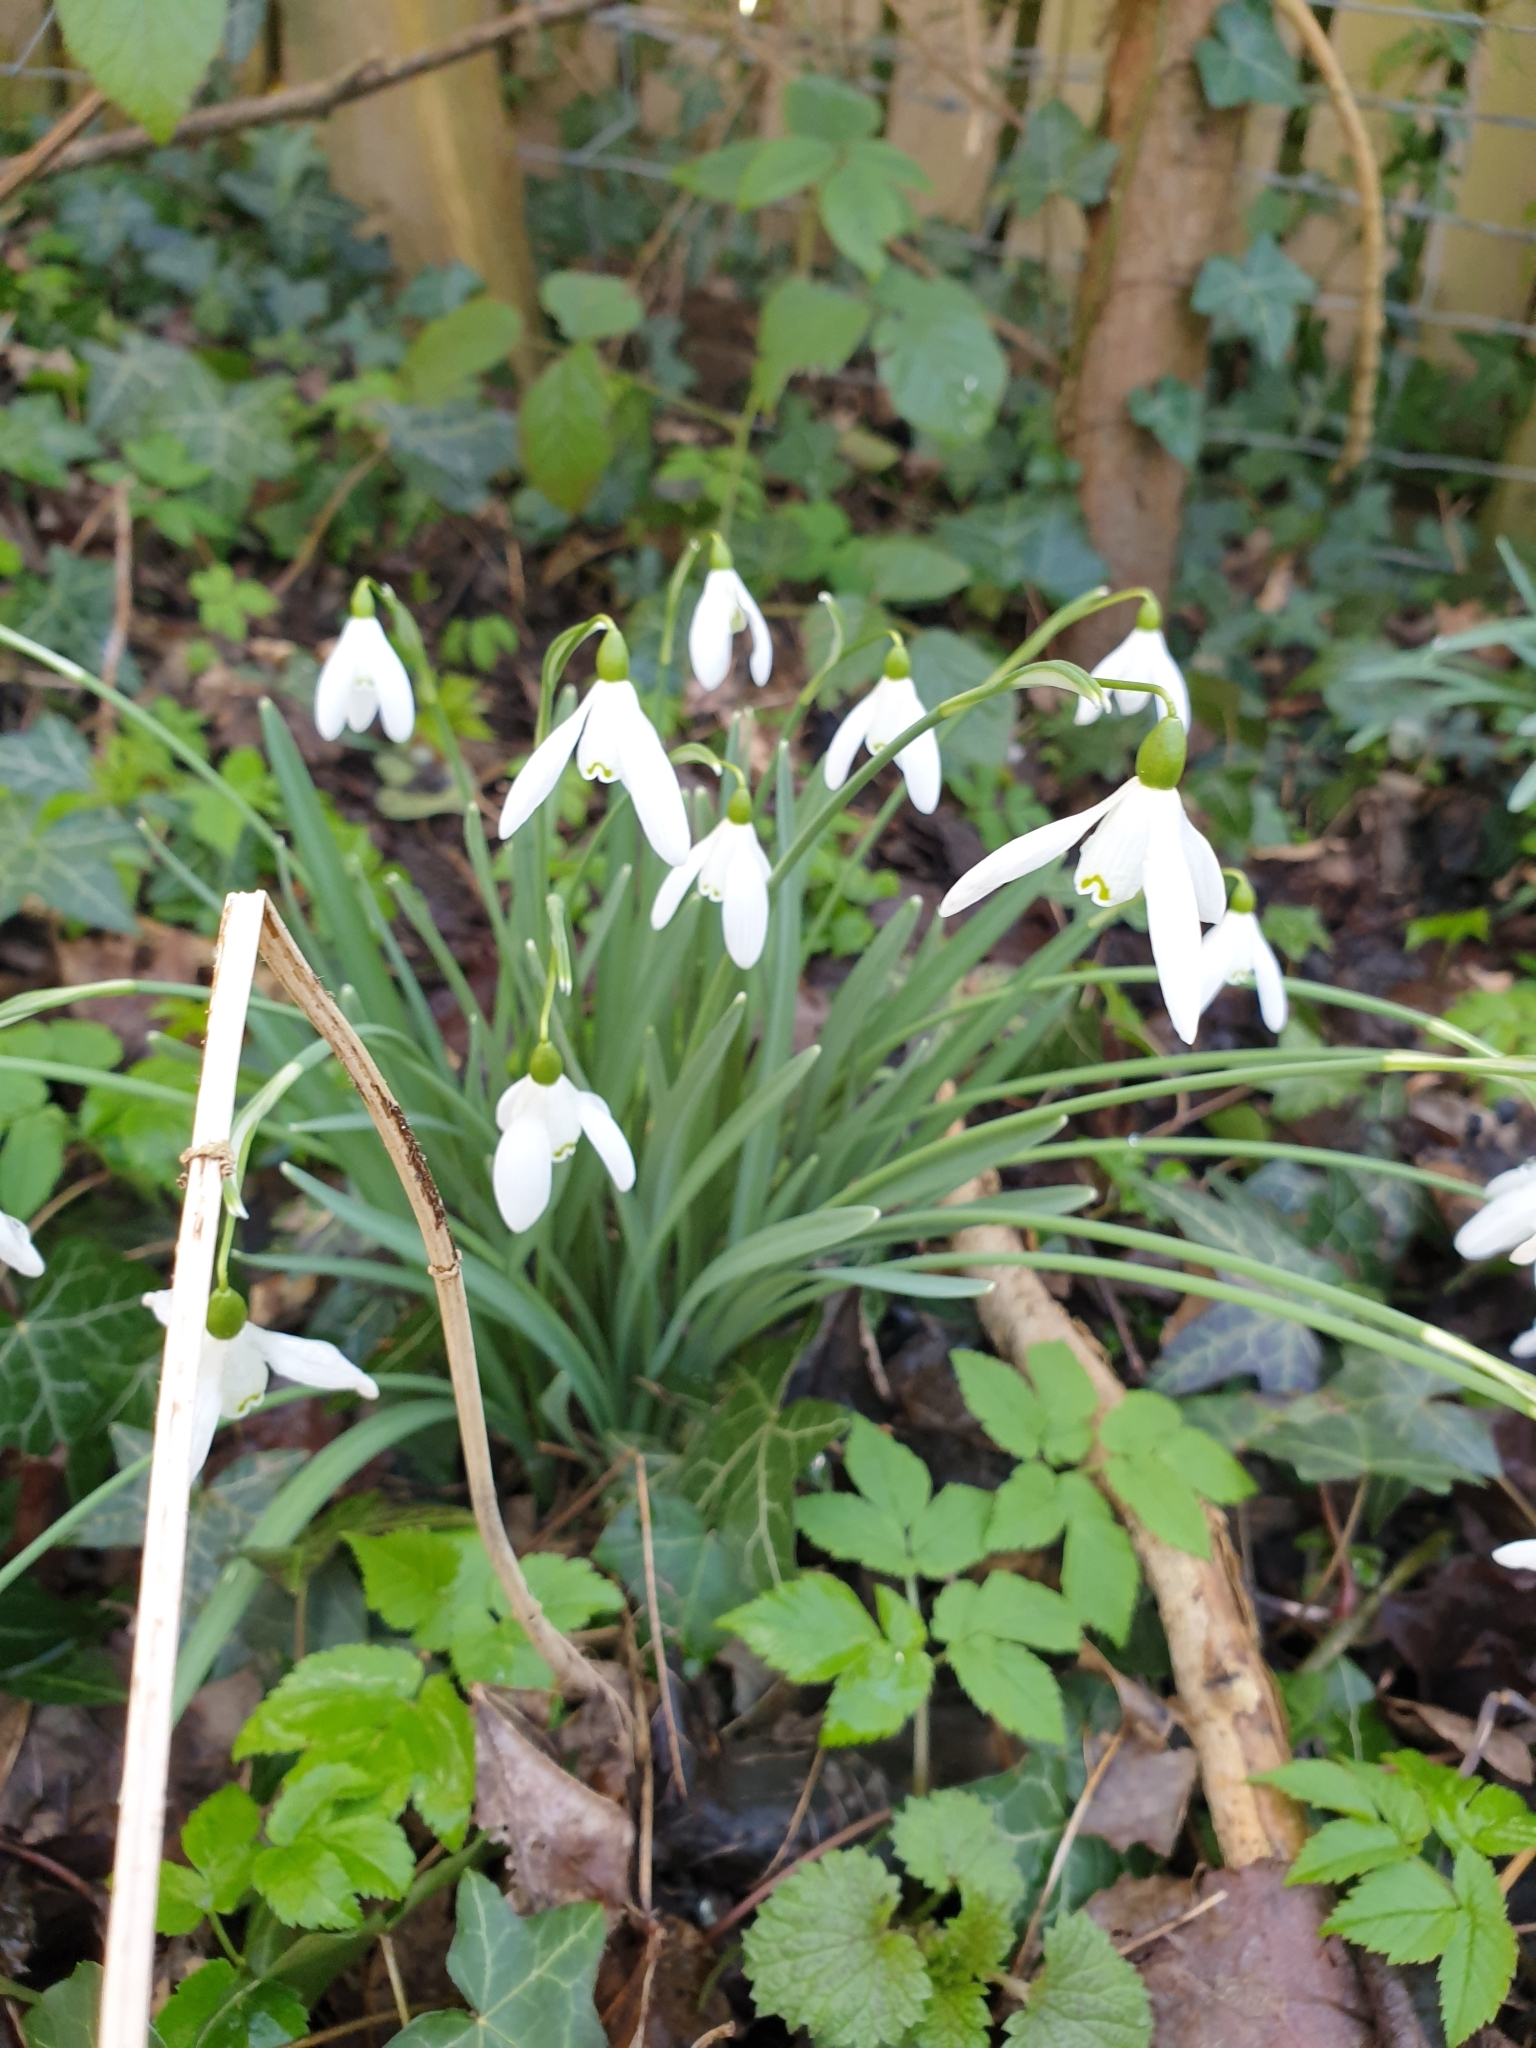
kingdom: Plantae
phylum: Tracheophyta
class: Liliopsida
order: Asparagales
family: Amaryllidaceae
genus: Galanthus
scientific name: Galanthus nivalis
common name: Snowdrop
